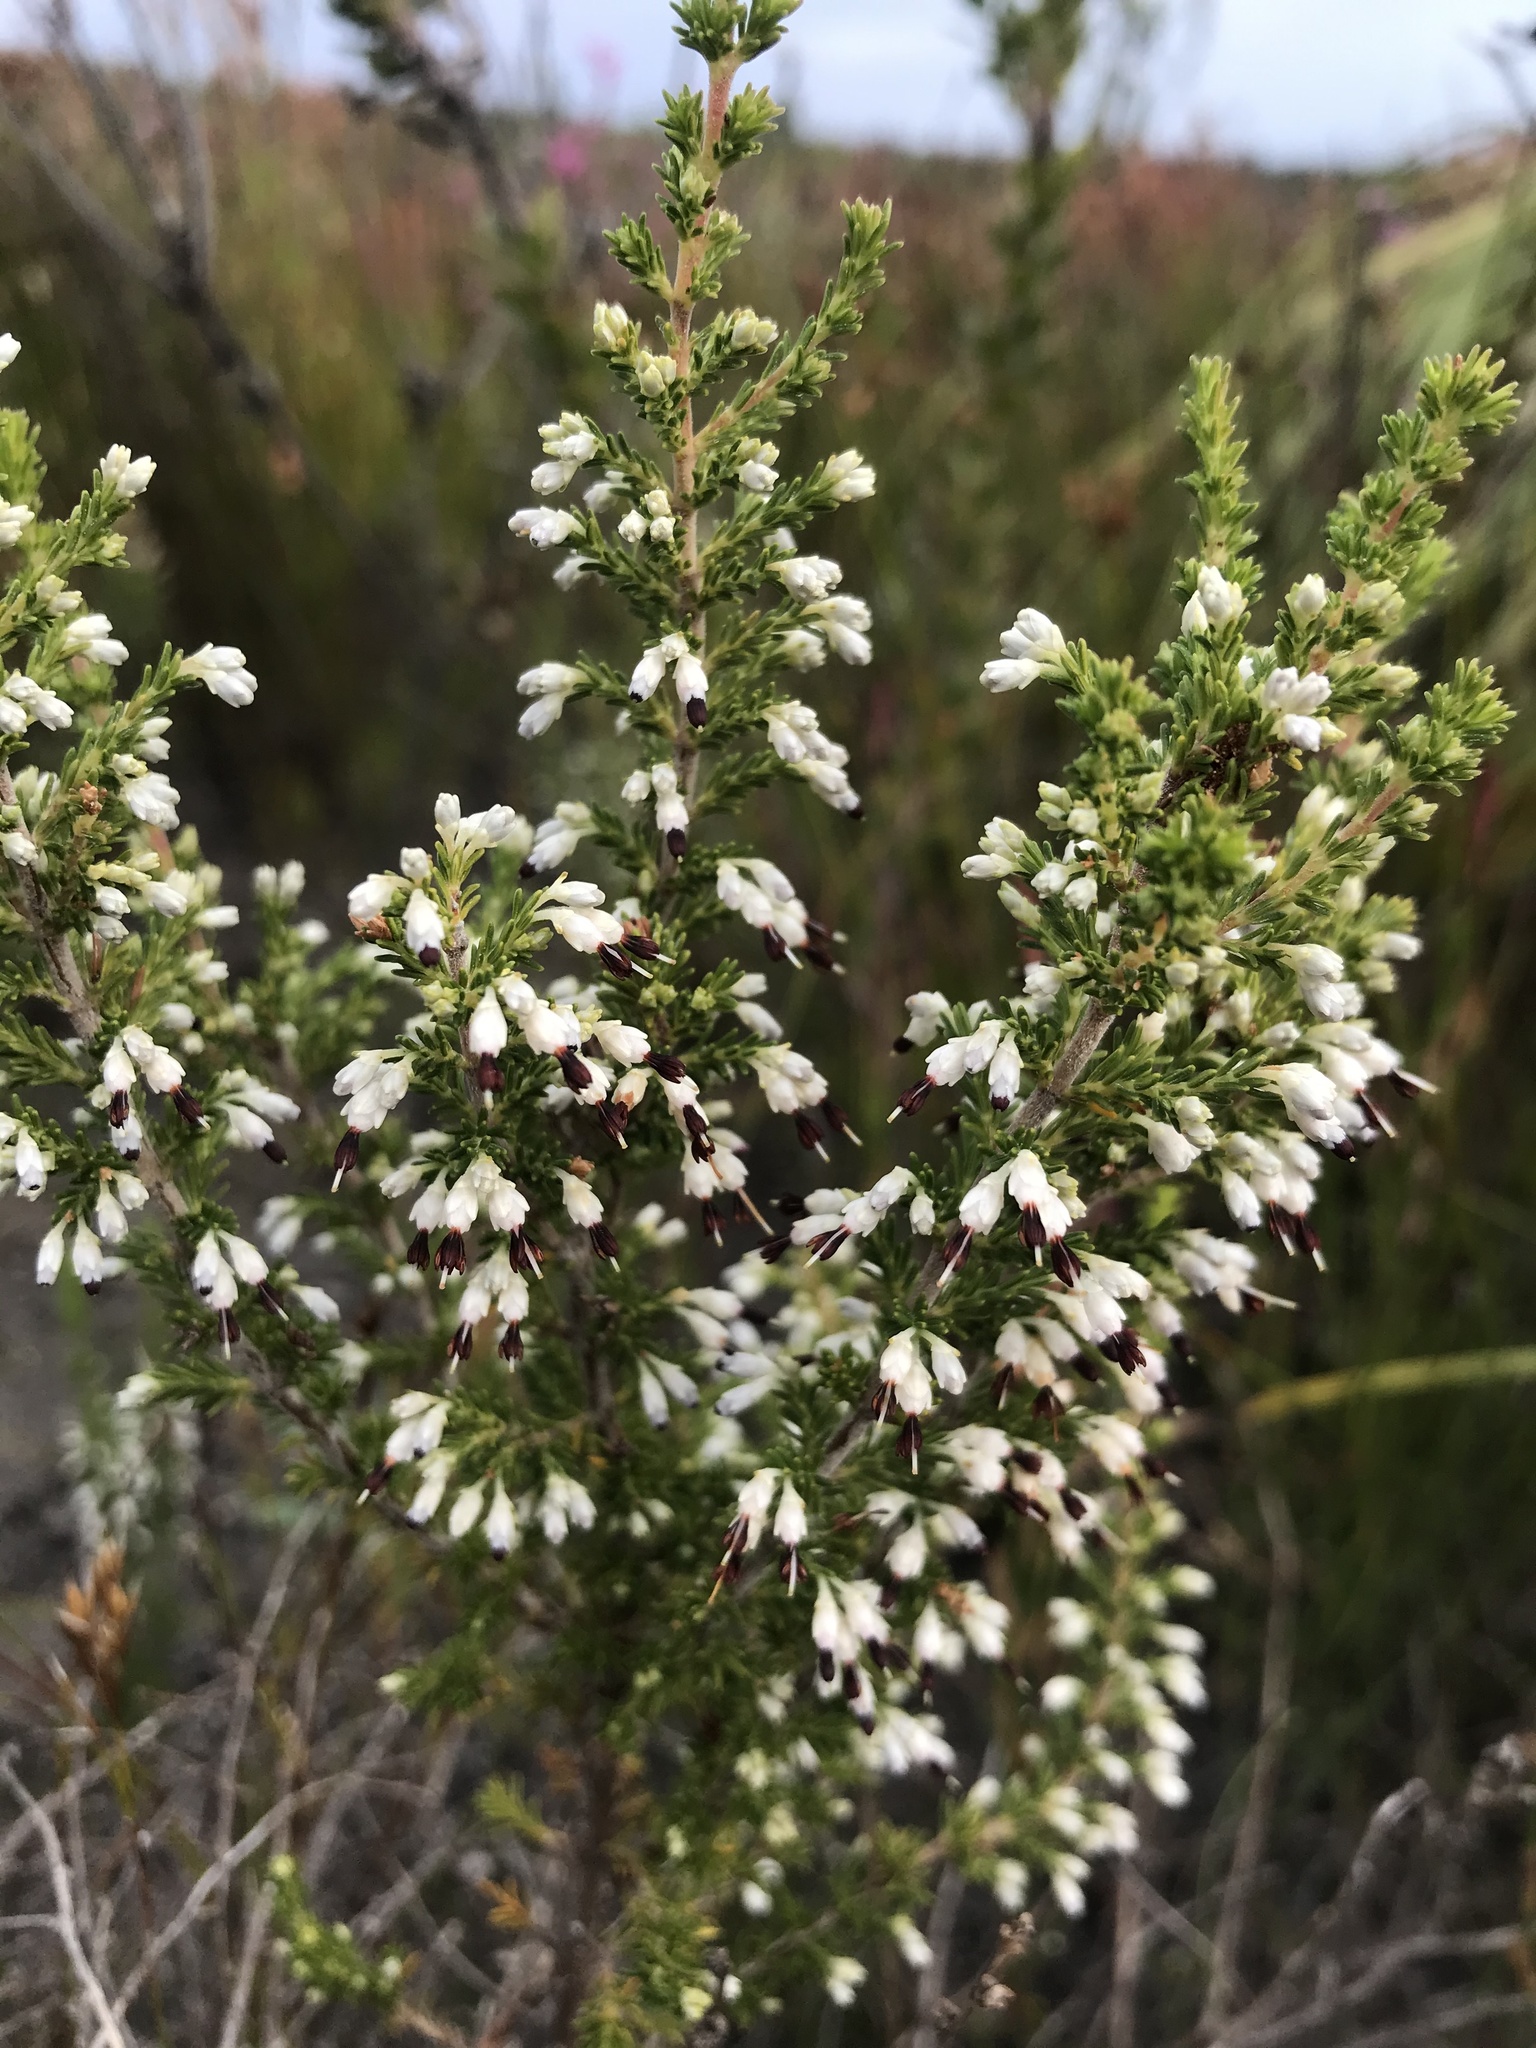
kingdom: Plantae
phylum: Tracheophyta
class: Magnoliopsida
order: Ericales
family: Ericaceae
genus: Erica
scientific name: Erica imbricata
